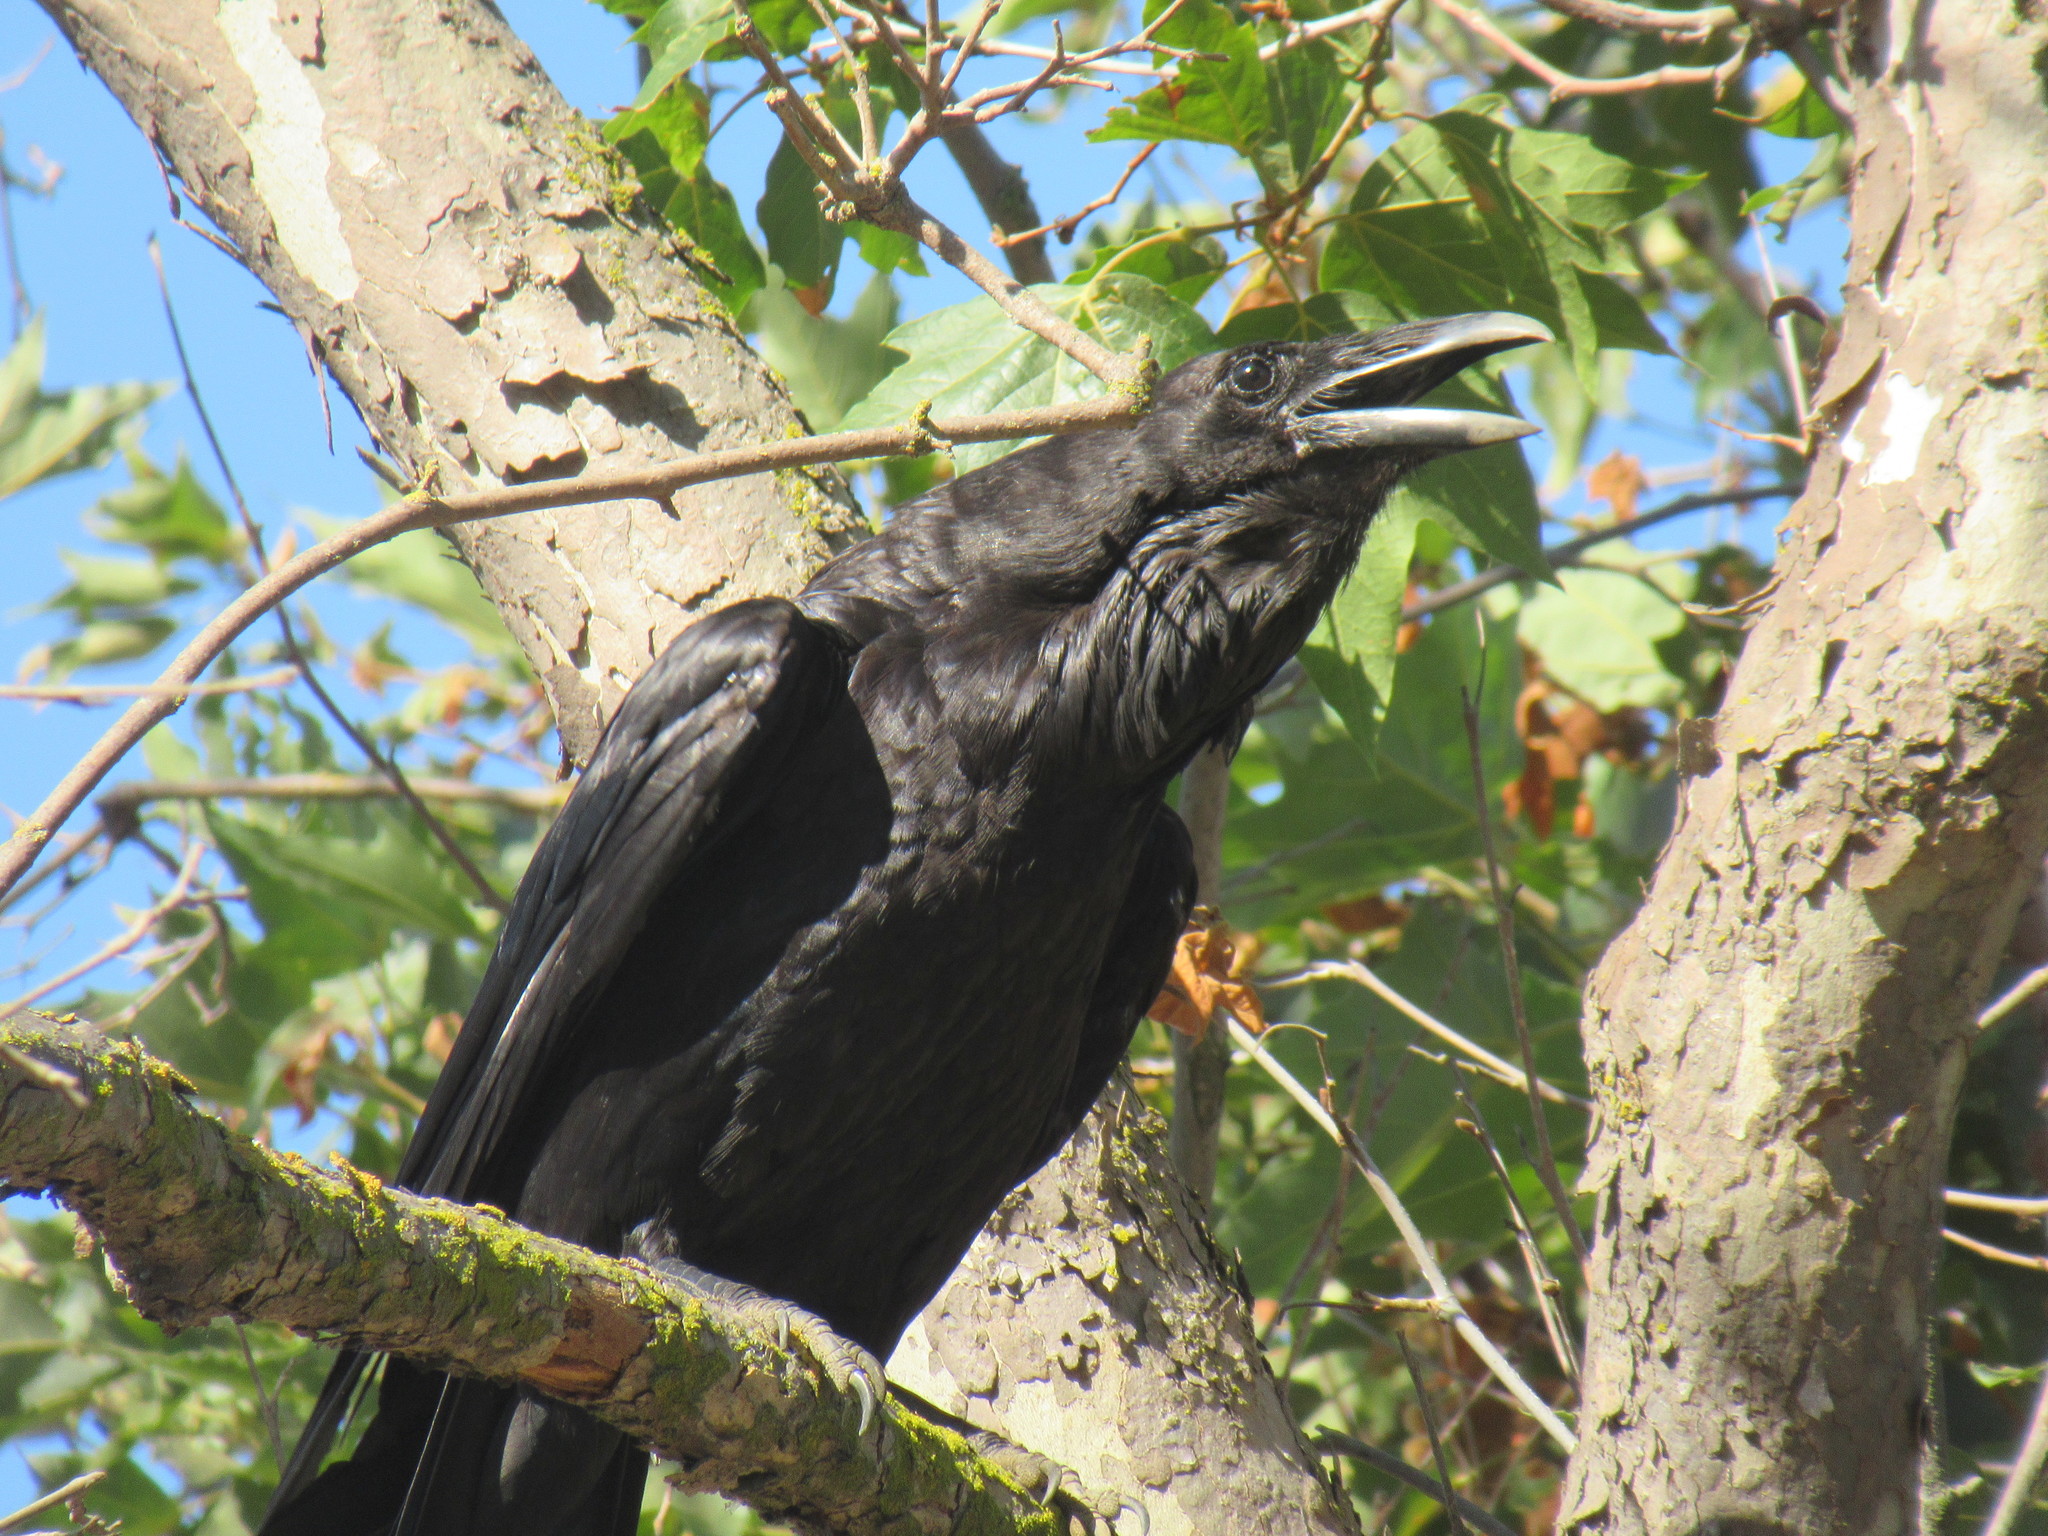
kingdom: Animalia
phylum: Chordata
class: Aves
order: Passeriformes
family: Corvidae
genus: Corvus
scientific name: Corvus corax
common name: Common raven
